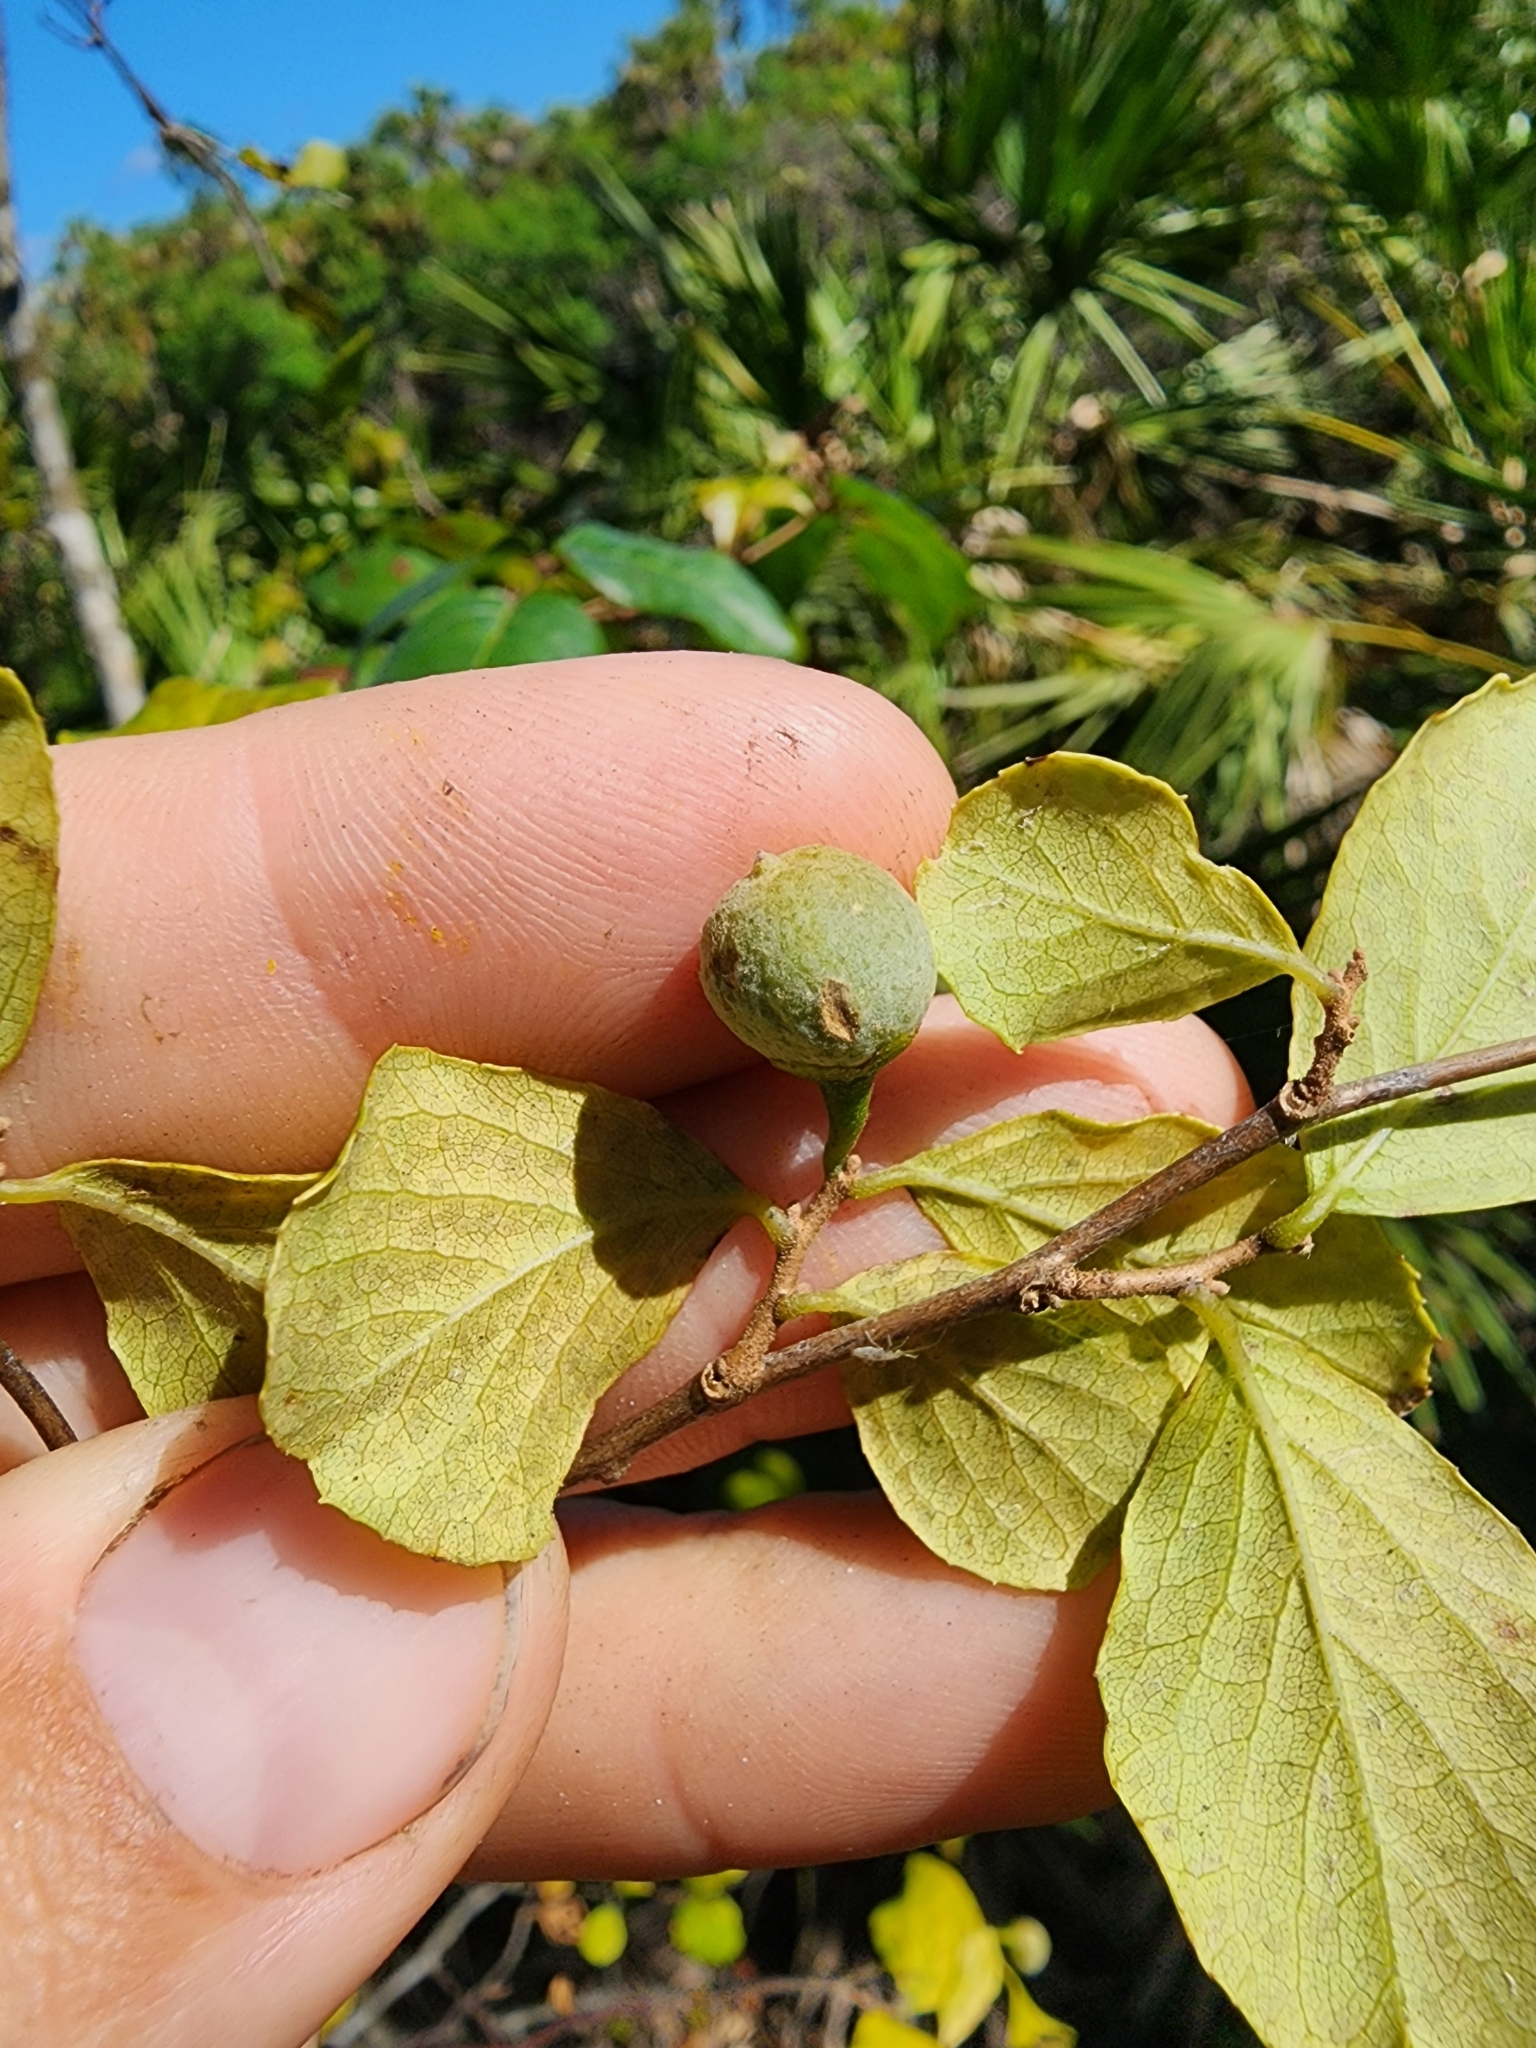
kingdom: Plantae
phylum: Tracheophyta
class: Magnoliopsida
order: Ericales
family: Styracaceae
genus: Styrax
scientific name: Styrax americanus
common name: American snowbell
